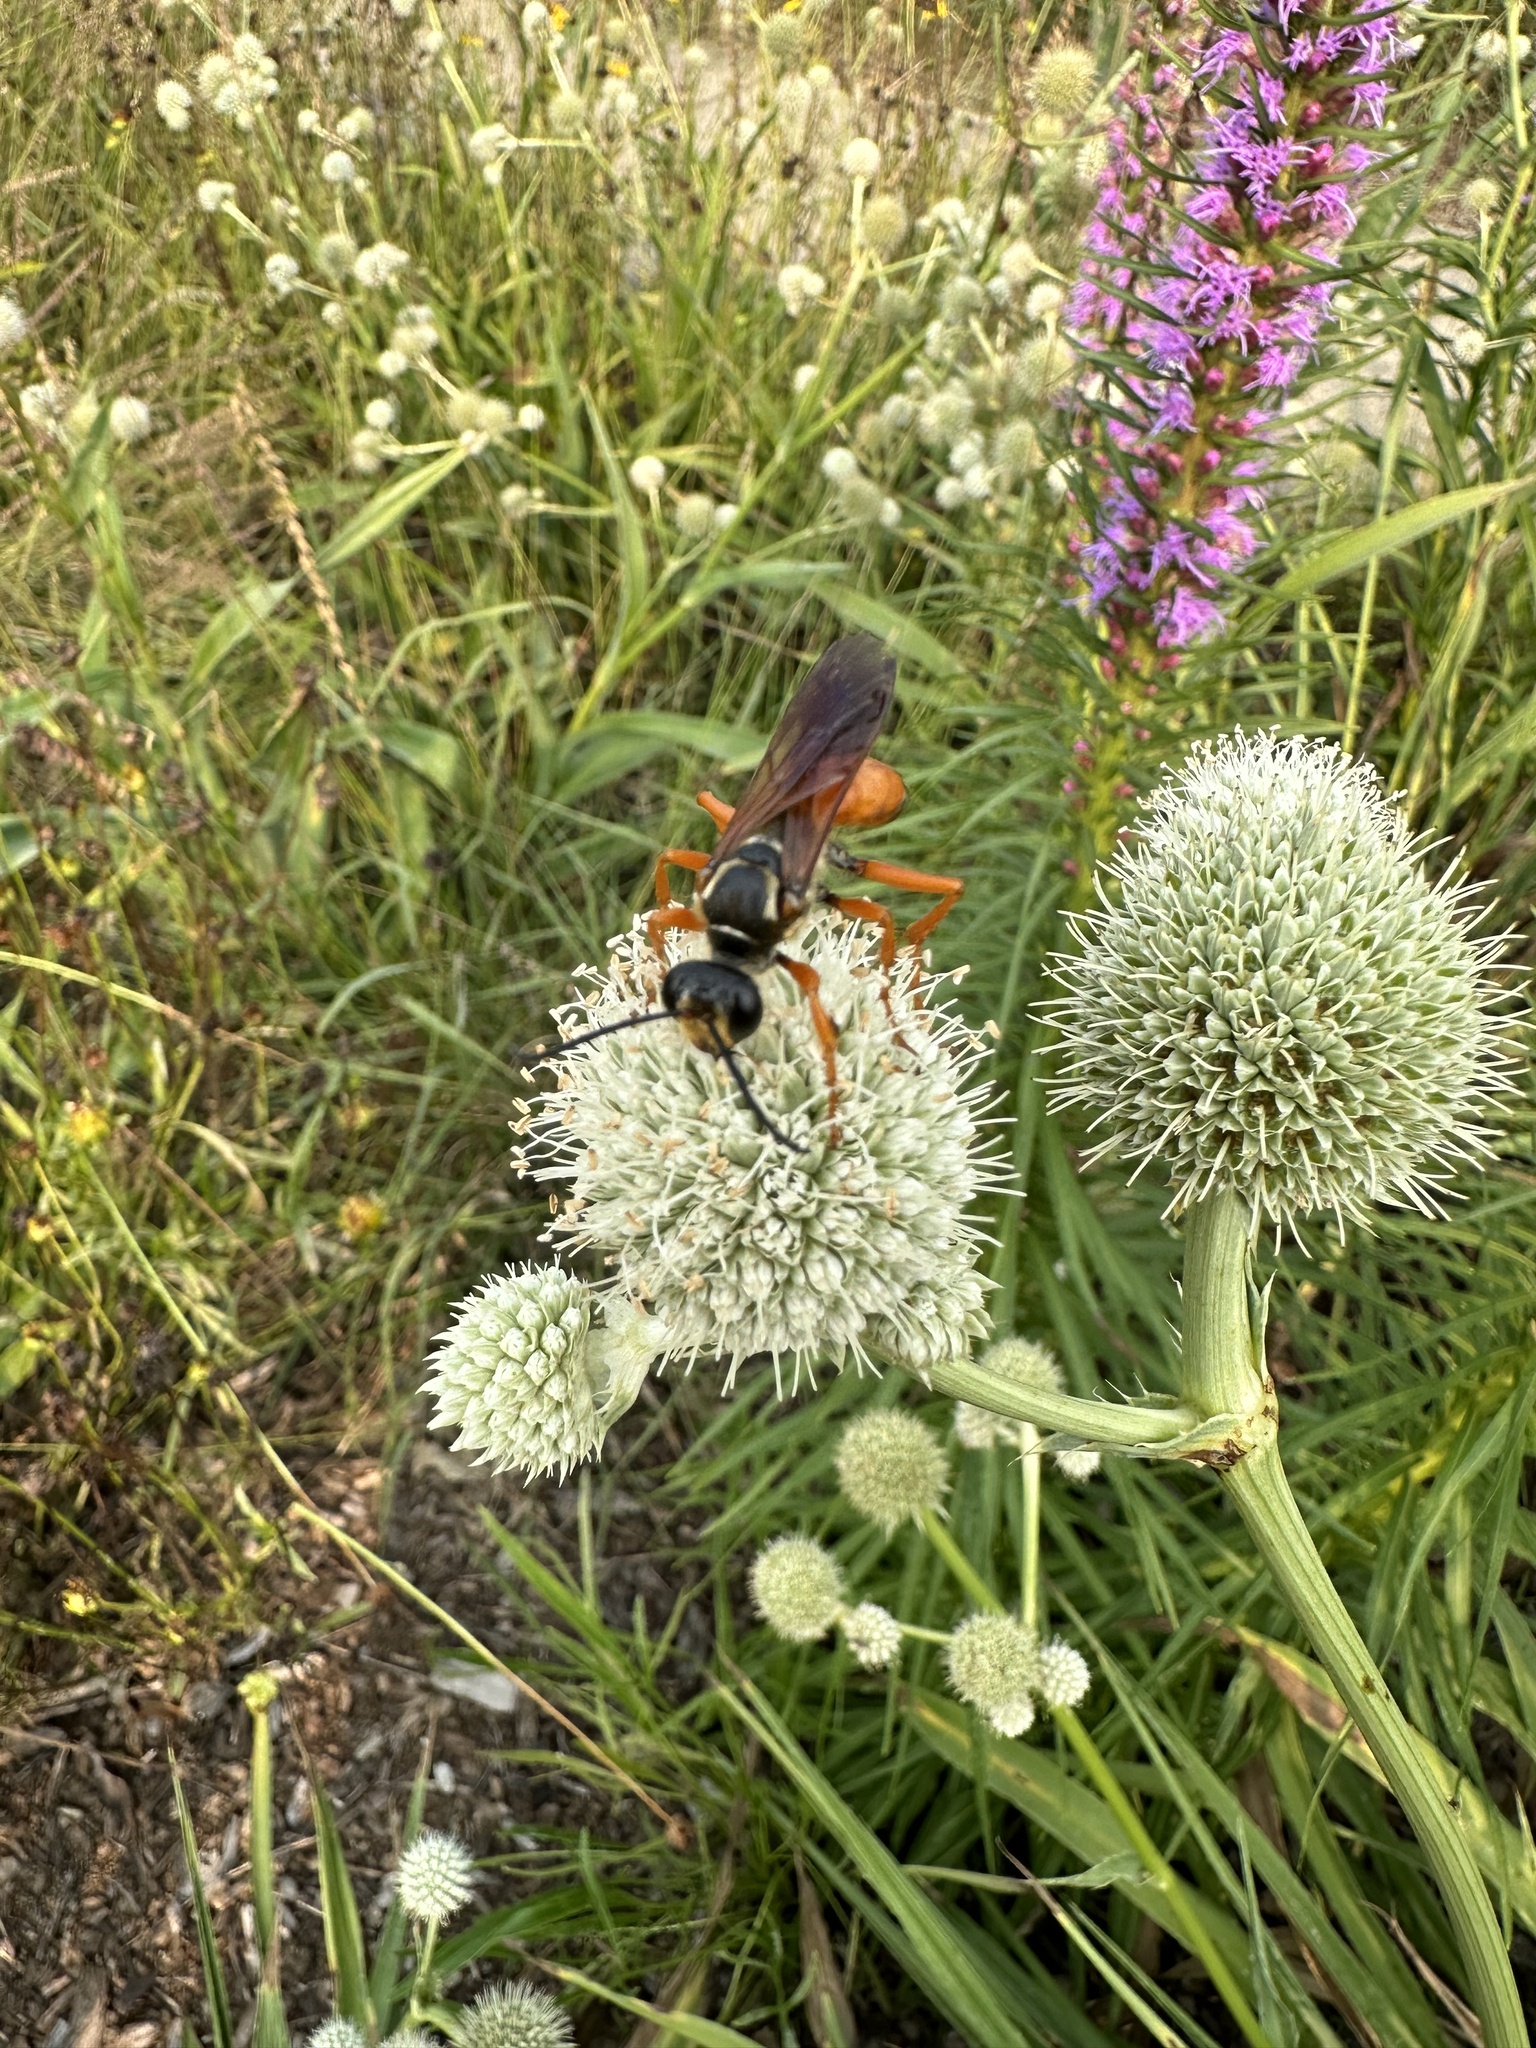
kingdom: Animalia
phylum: Arthropoda
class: Insecta
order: Hymenoptera
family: Sphecidae
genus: Sphex
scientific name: Sphex ichneumoneus
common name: Great golden digger wasp
